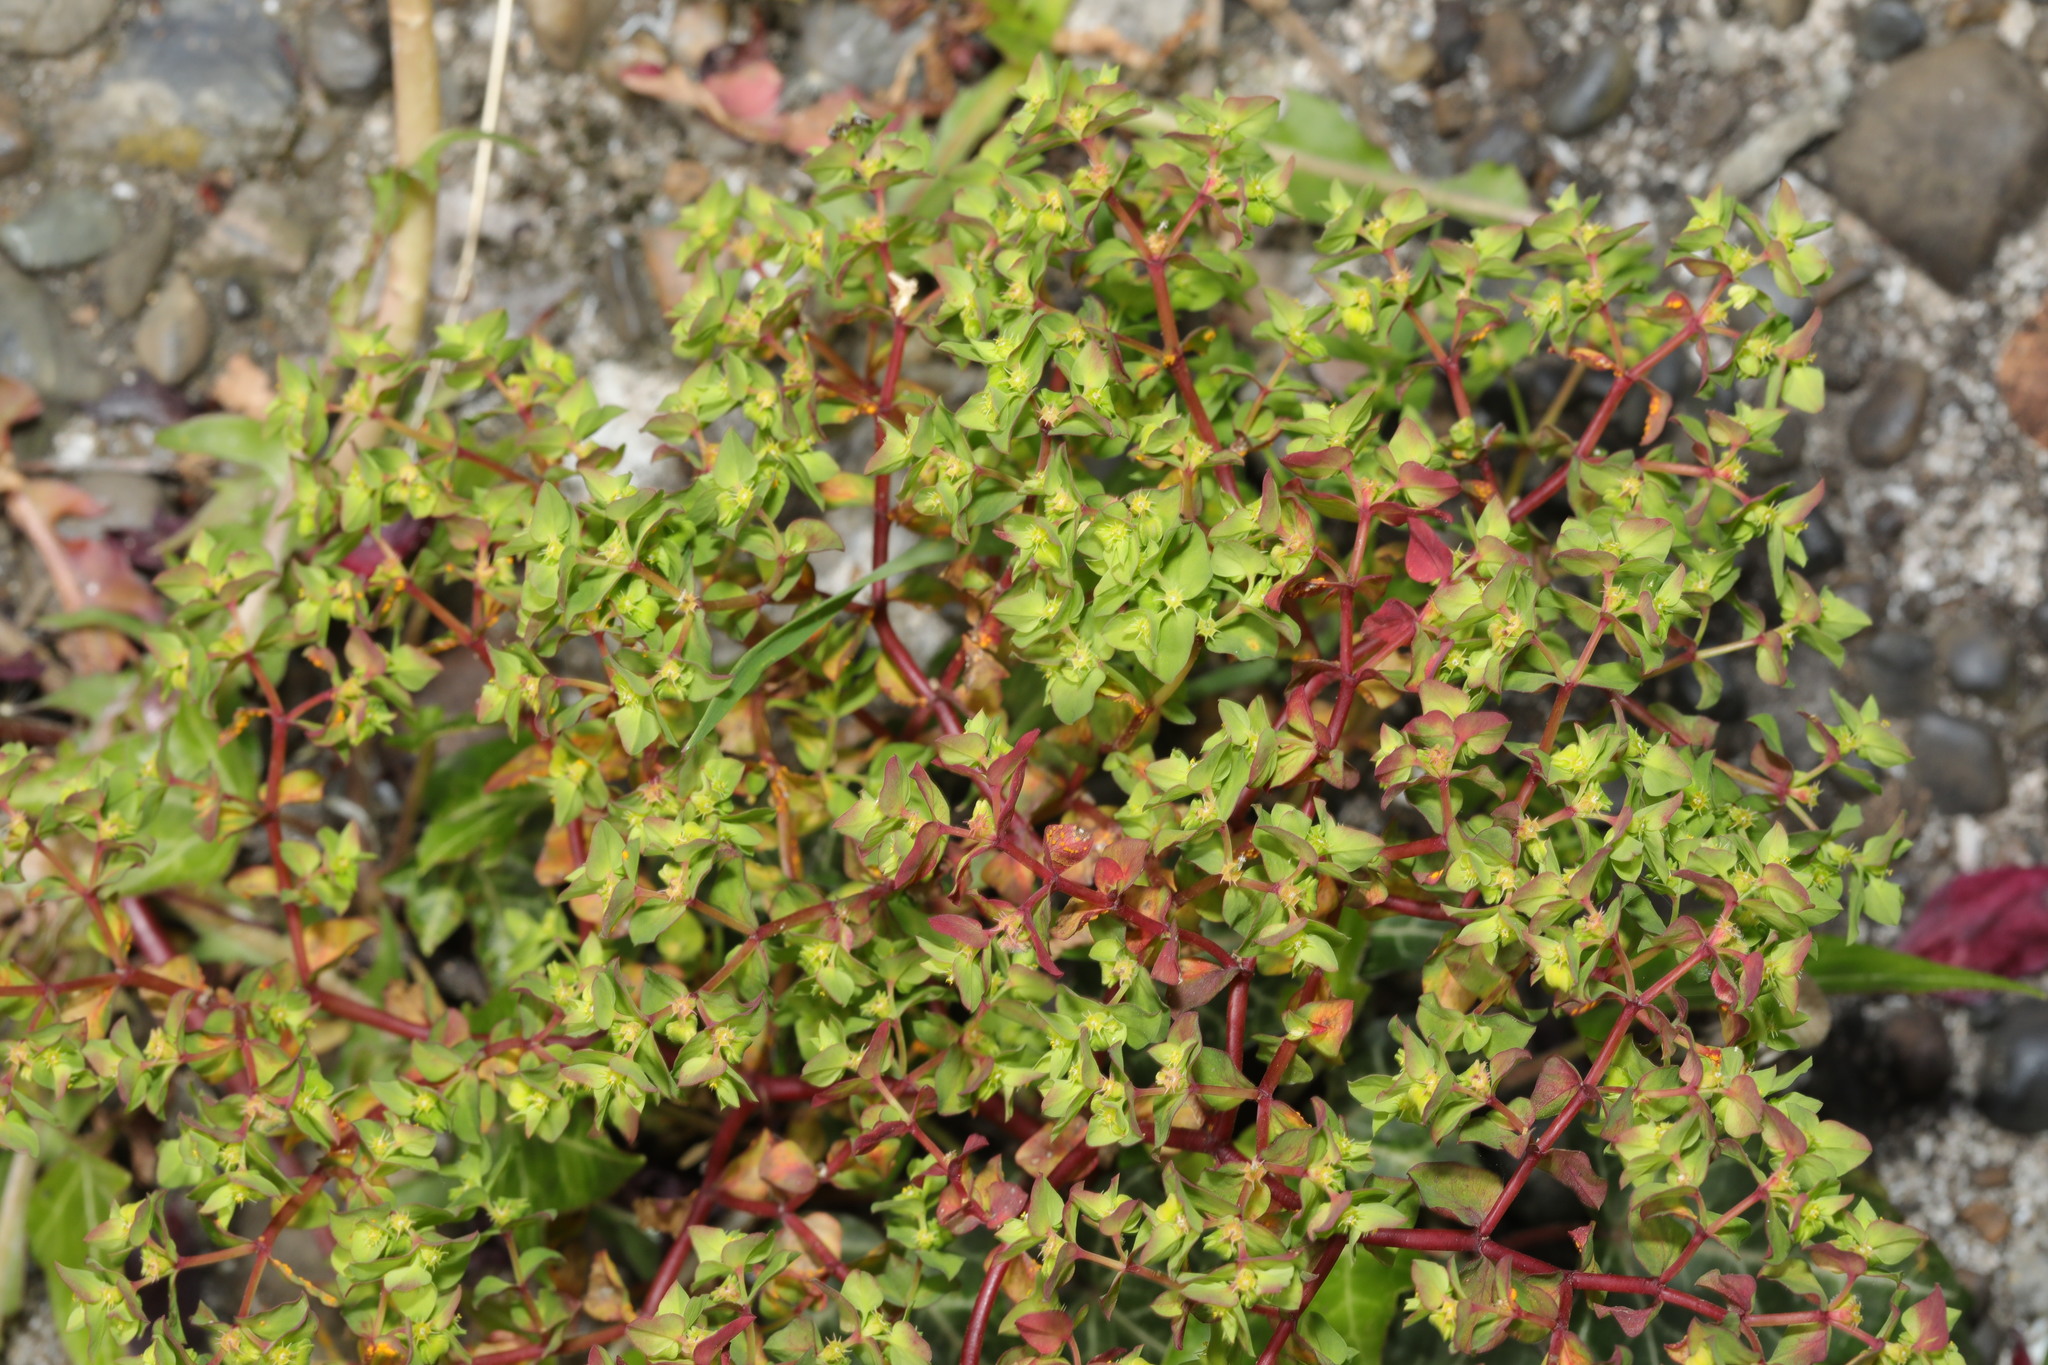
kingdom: Plantae
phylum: Tracheophyta
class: Magnoliopsida
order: Malpighiales
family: Euphorbiaceae
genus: Euphorbia
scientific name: Euphorbia peplus
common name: Petty spurge
